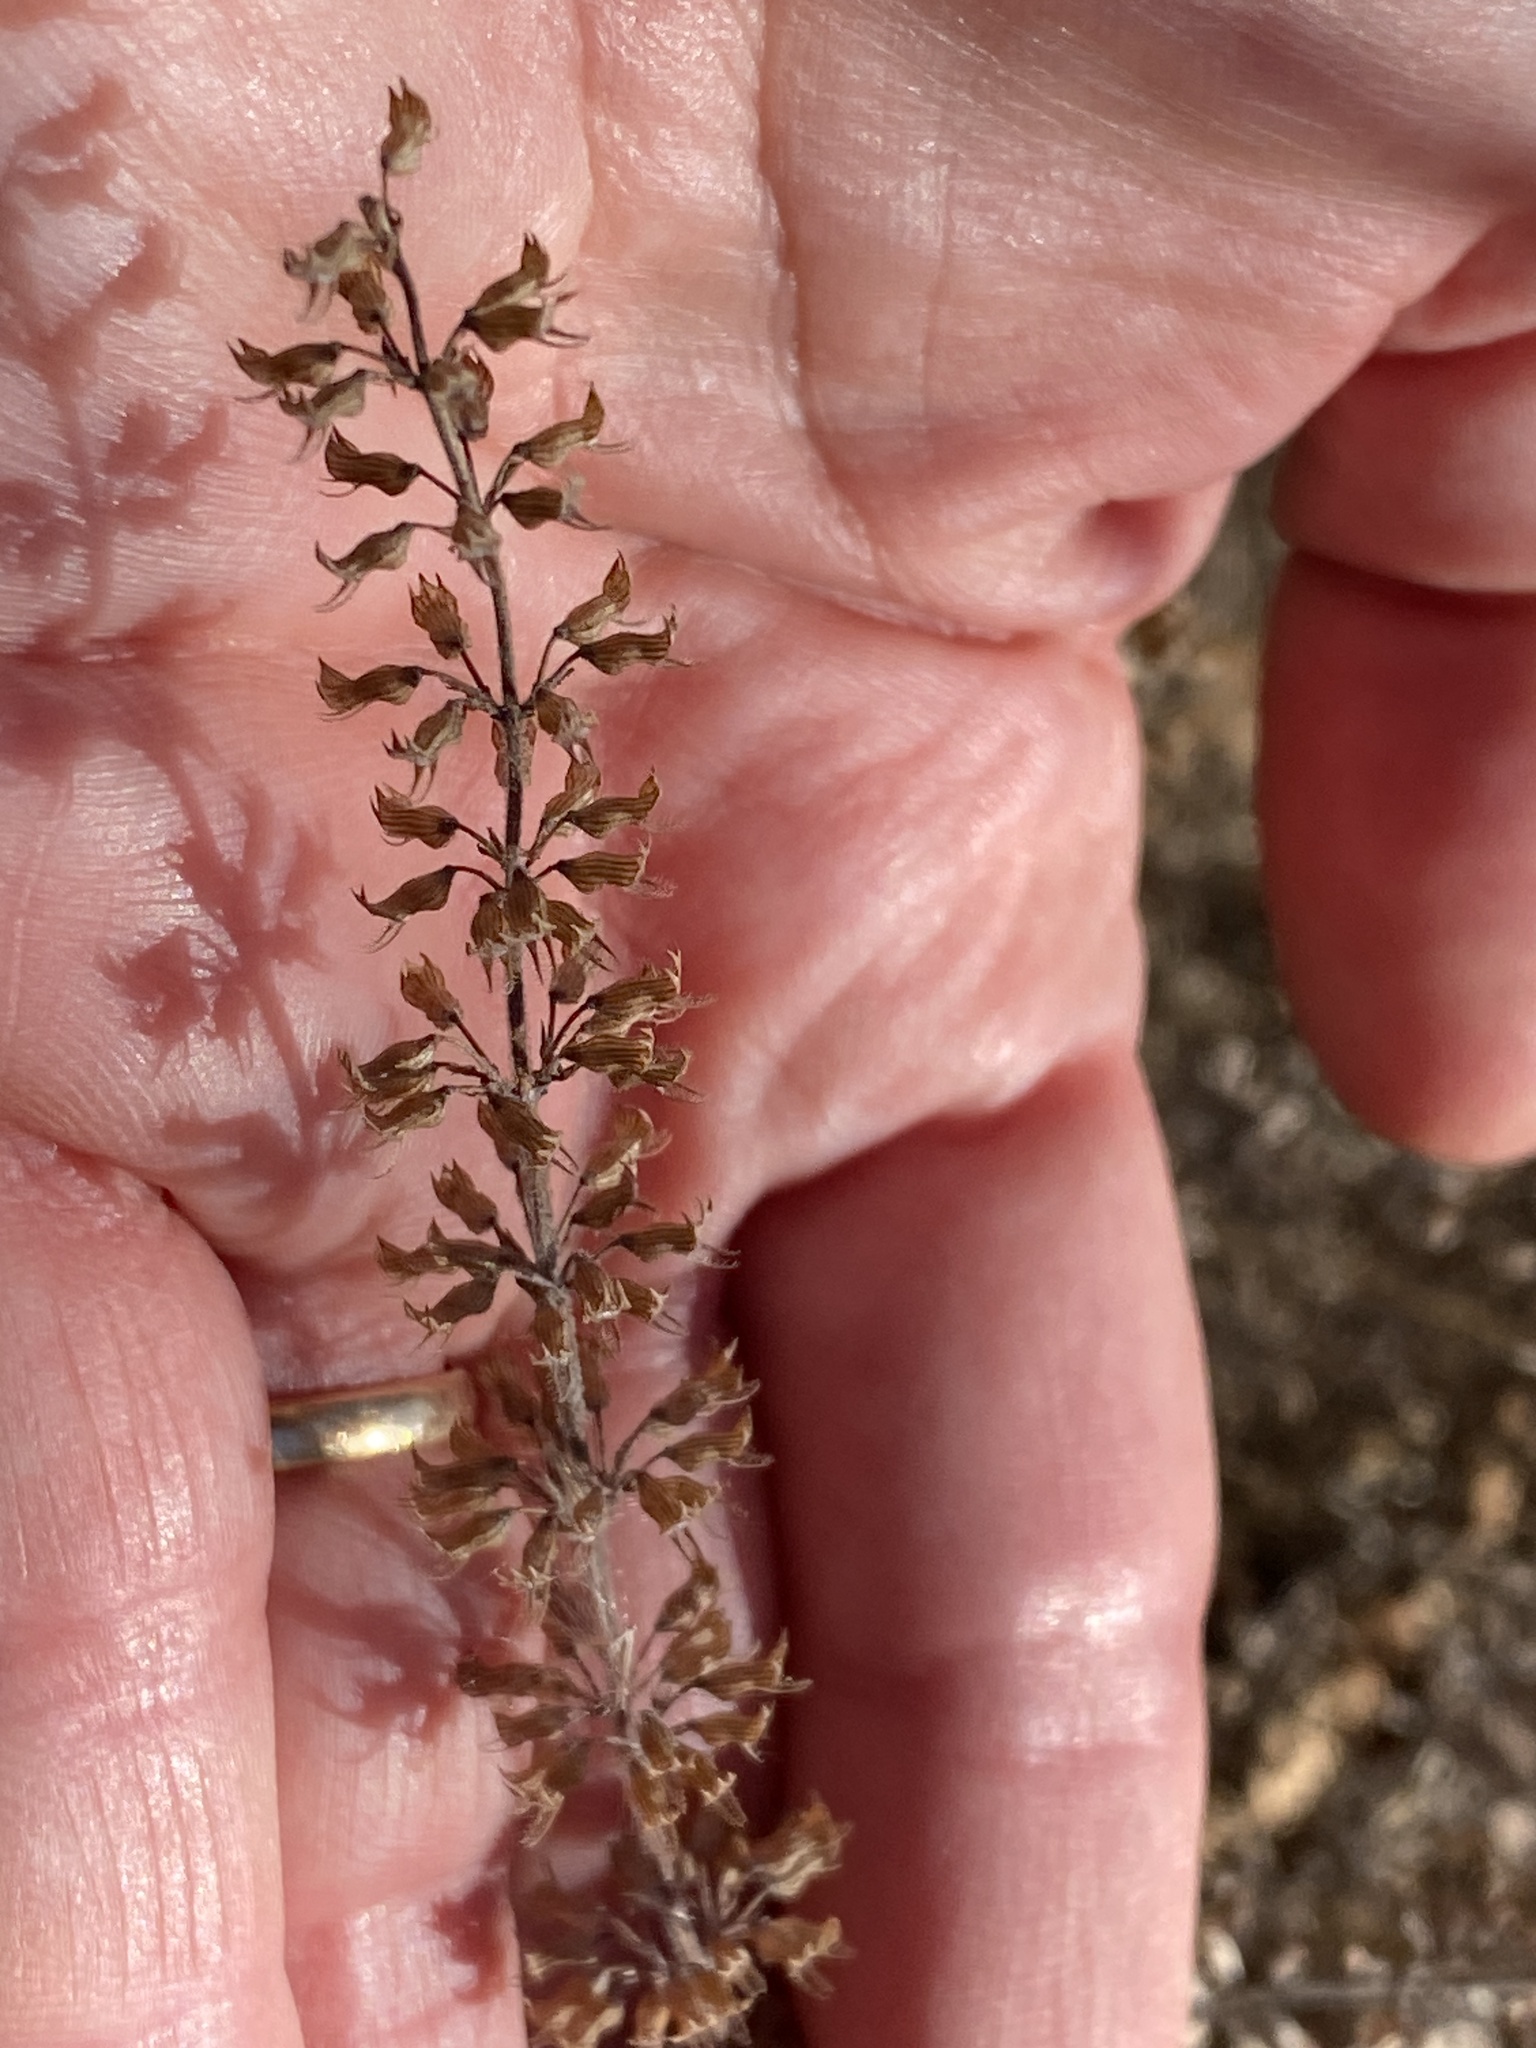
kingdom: Plantae
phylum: Tracheophyta
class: Magnoliopsida
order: Lamiales
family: Lamiaceae
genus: Hedeoma
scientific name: Hedeoma pulegioides
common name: American false pennyroyal
